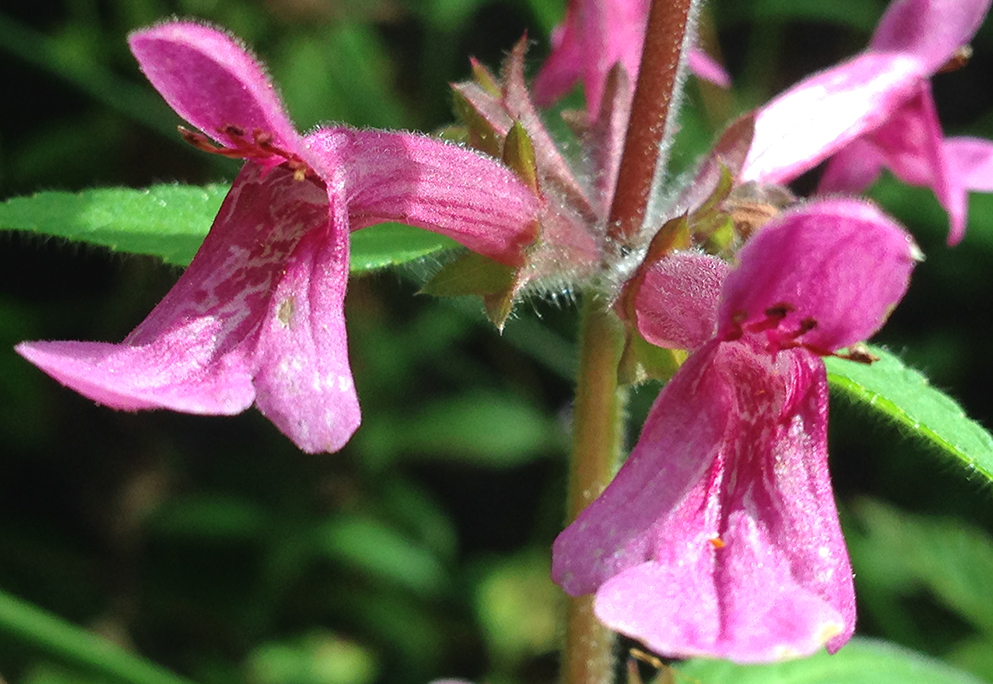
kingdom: Plantae
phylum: Tracheophyta
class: Magnoliopsida
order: Lamiales
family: Lamiaceae
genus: Stachys
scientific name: Stachys chamissonis
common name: Coastal hedge-nettle
